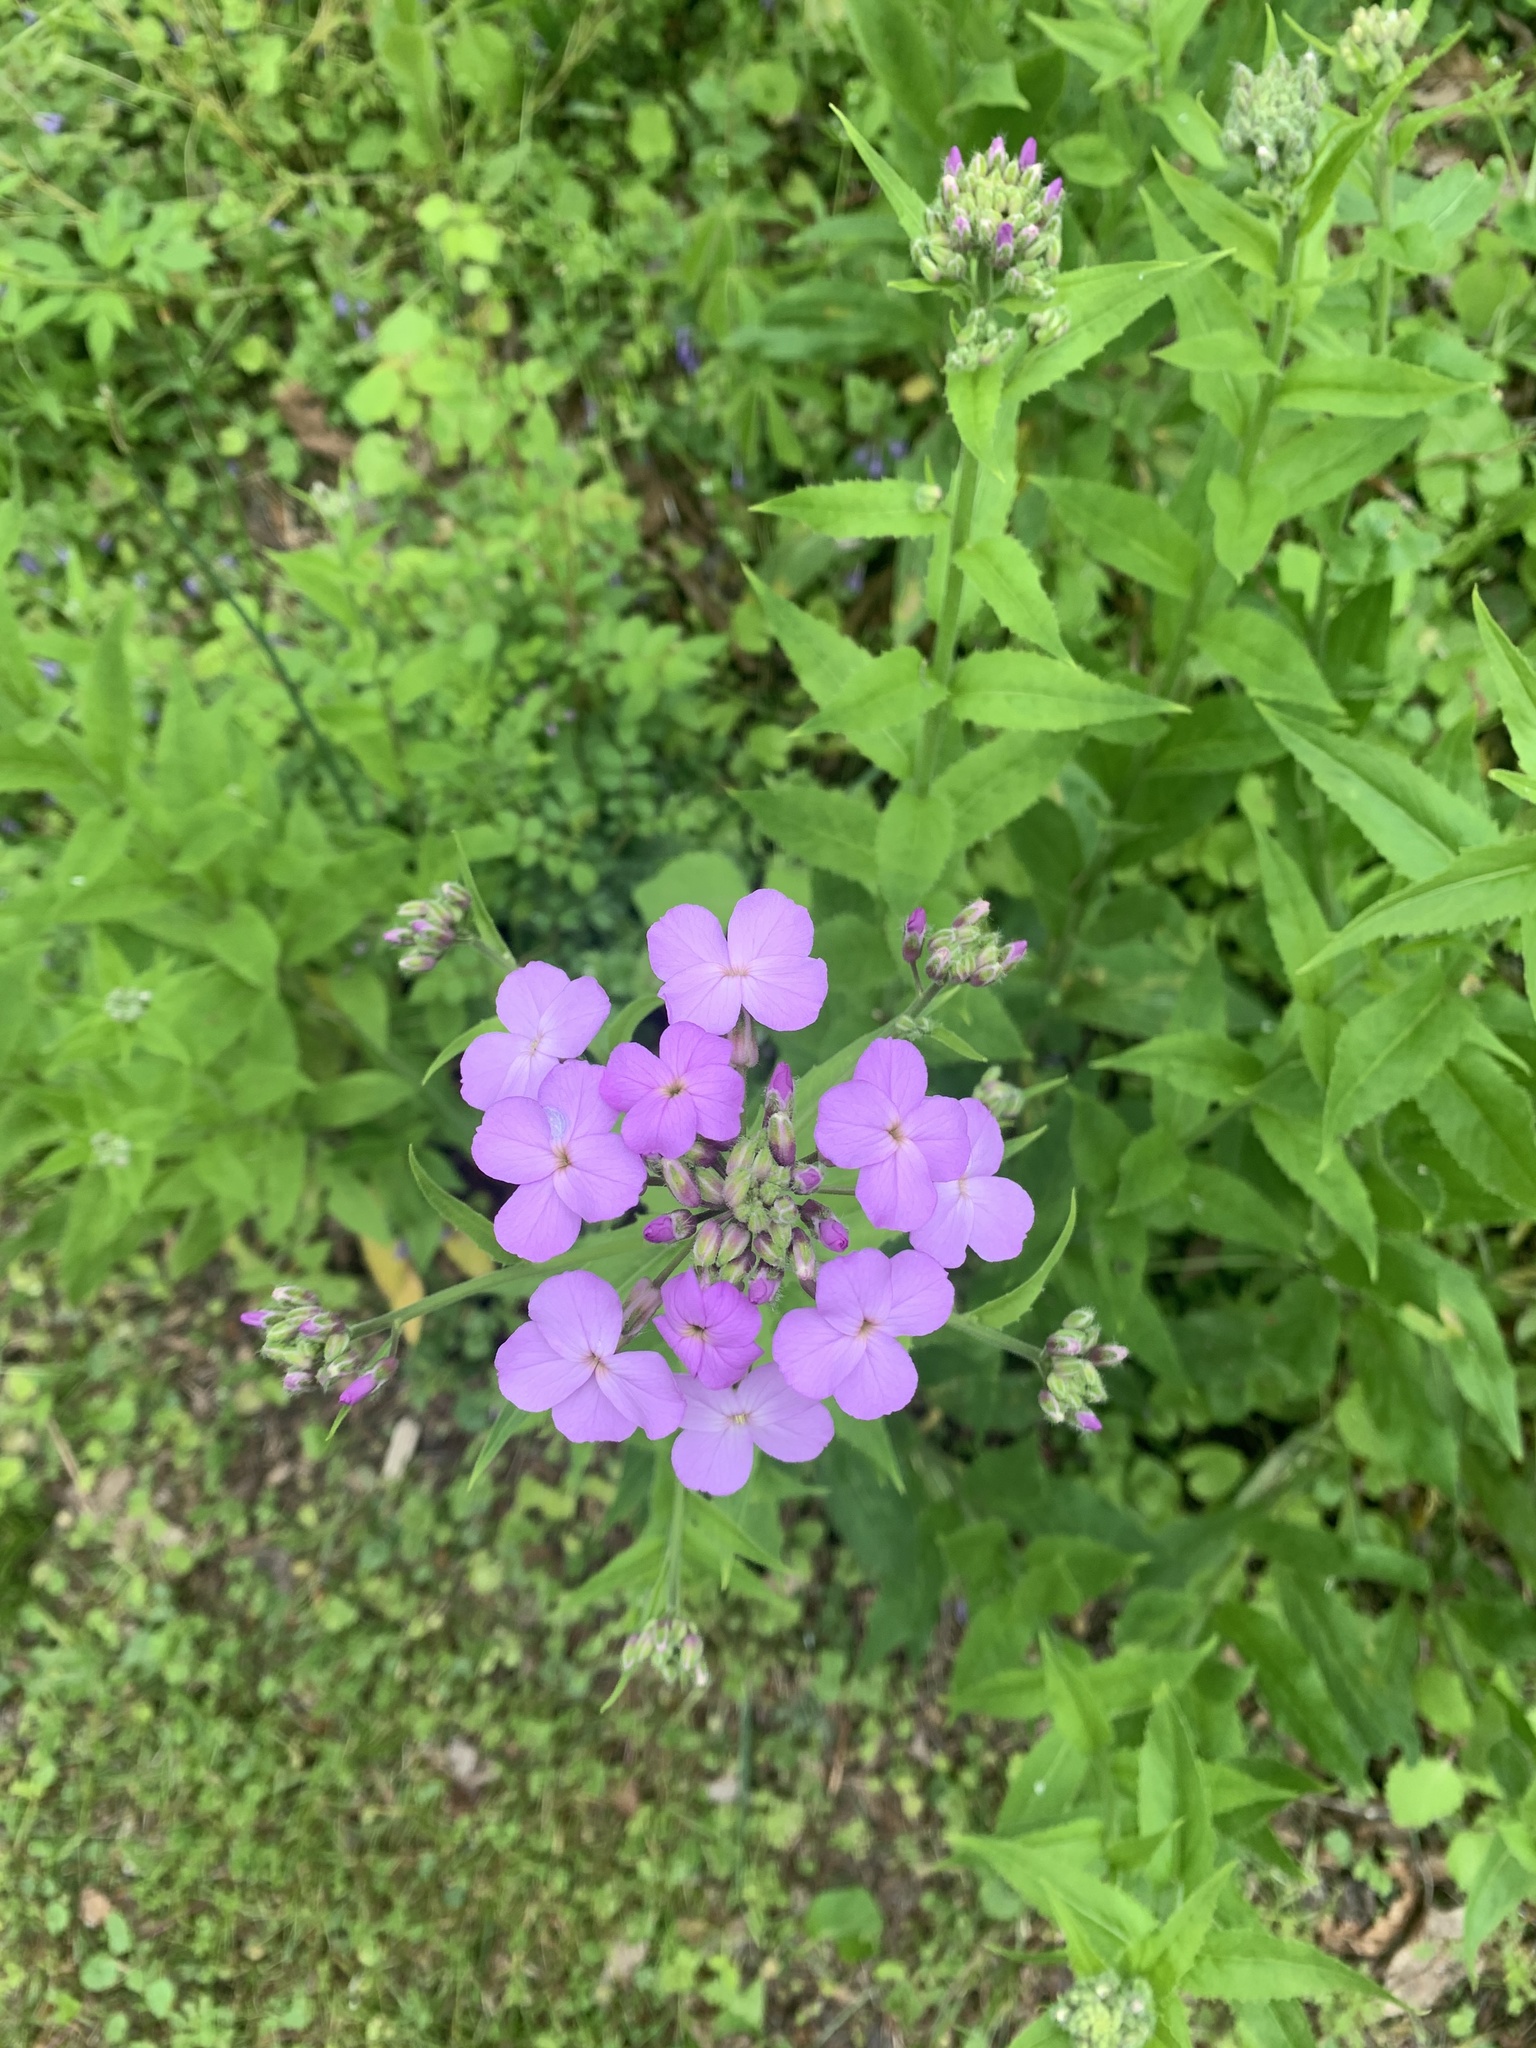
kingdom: Plantae
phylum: Tracheophyta
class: Magnoliopsida
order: Brassicales
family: Brassicaceae
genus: Hesperis
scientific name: Hesperis matronalis
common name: Dame's-violet
